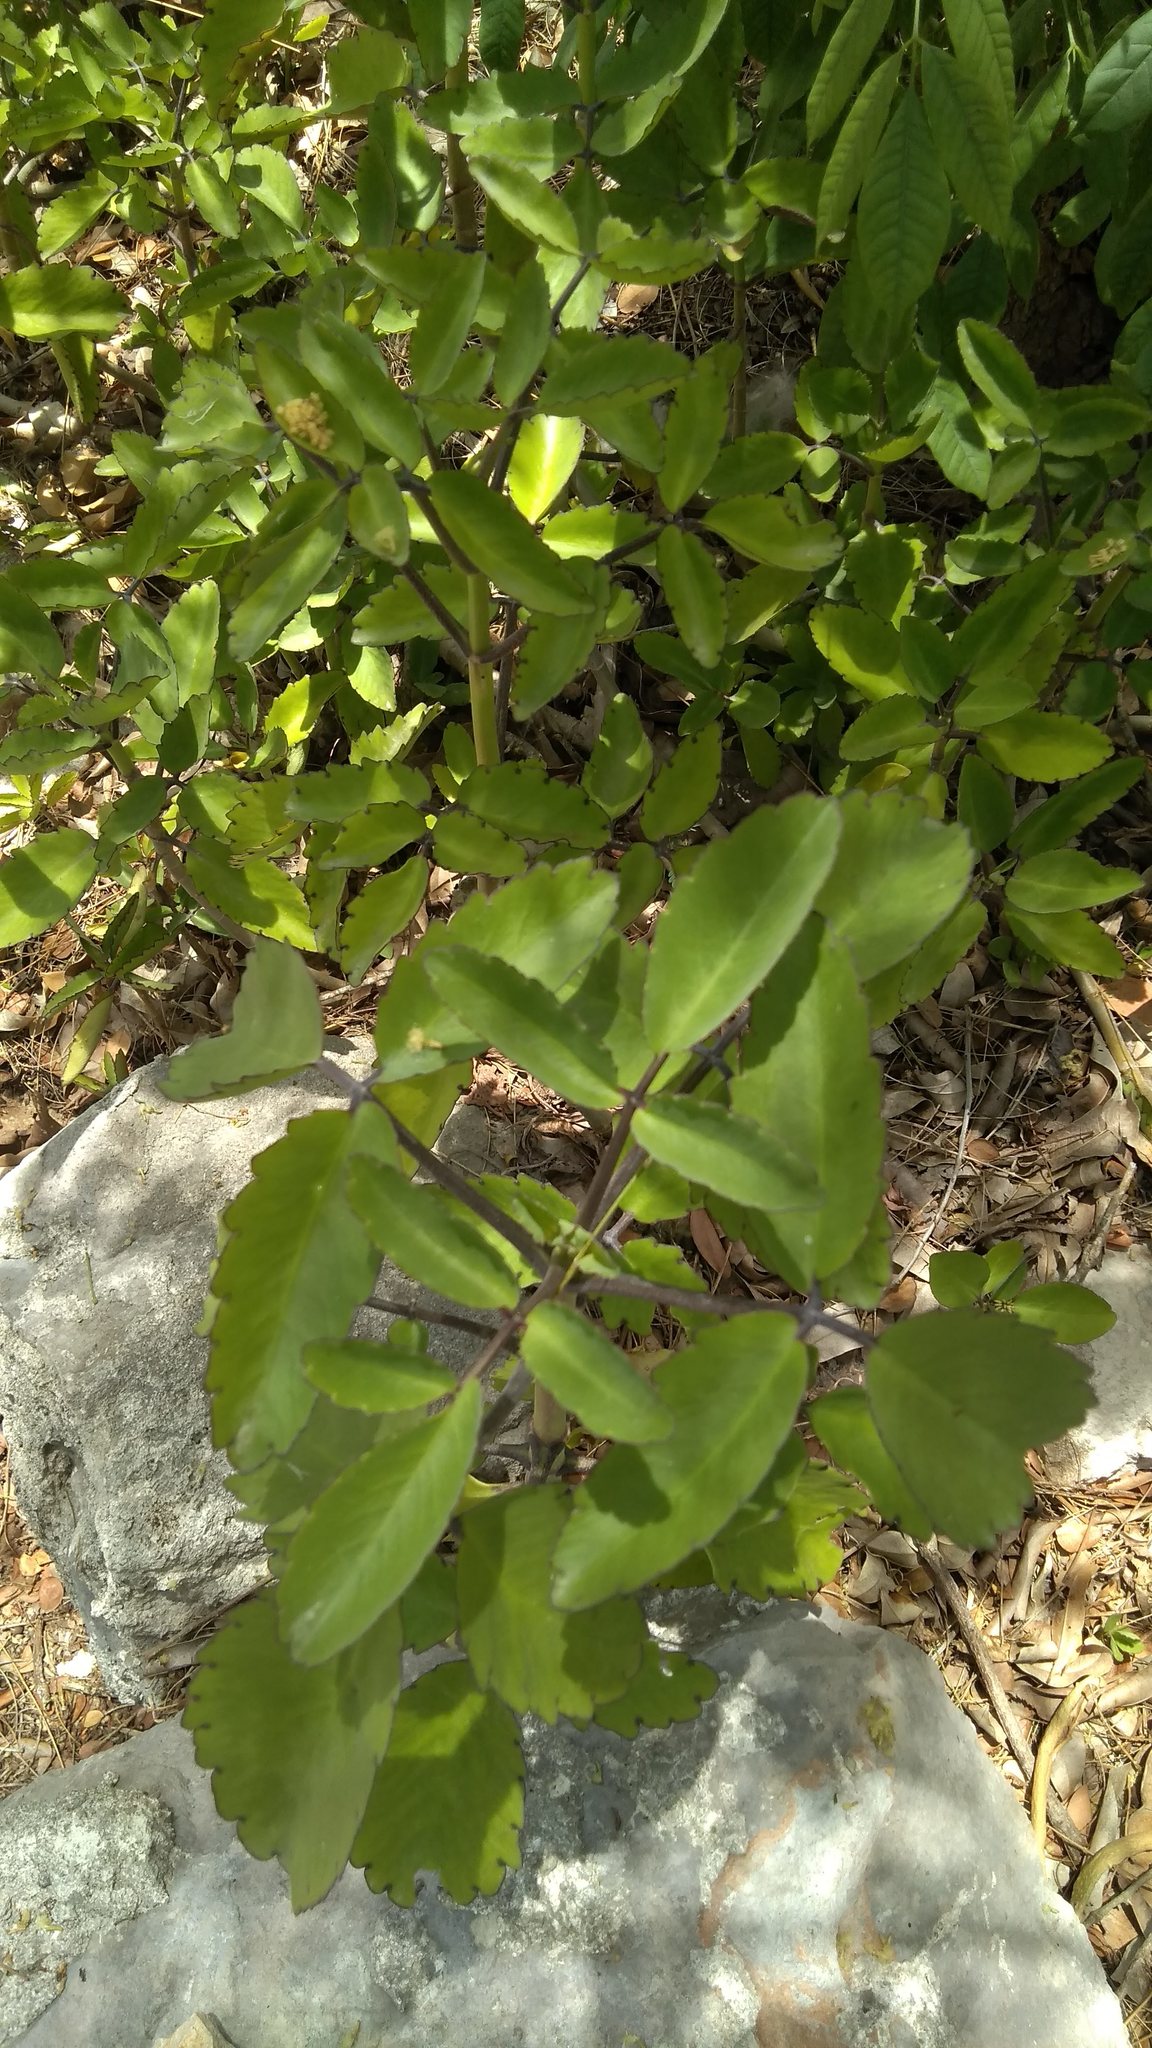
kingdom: Plantae
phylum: Tracheophyta
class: Magnoliopsida
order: Saxifragales
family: Crassulaceae
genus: Kalanchoe
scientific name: Kalanchoe pinnata
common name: Cathedral bells
